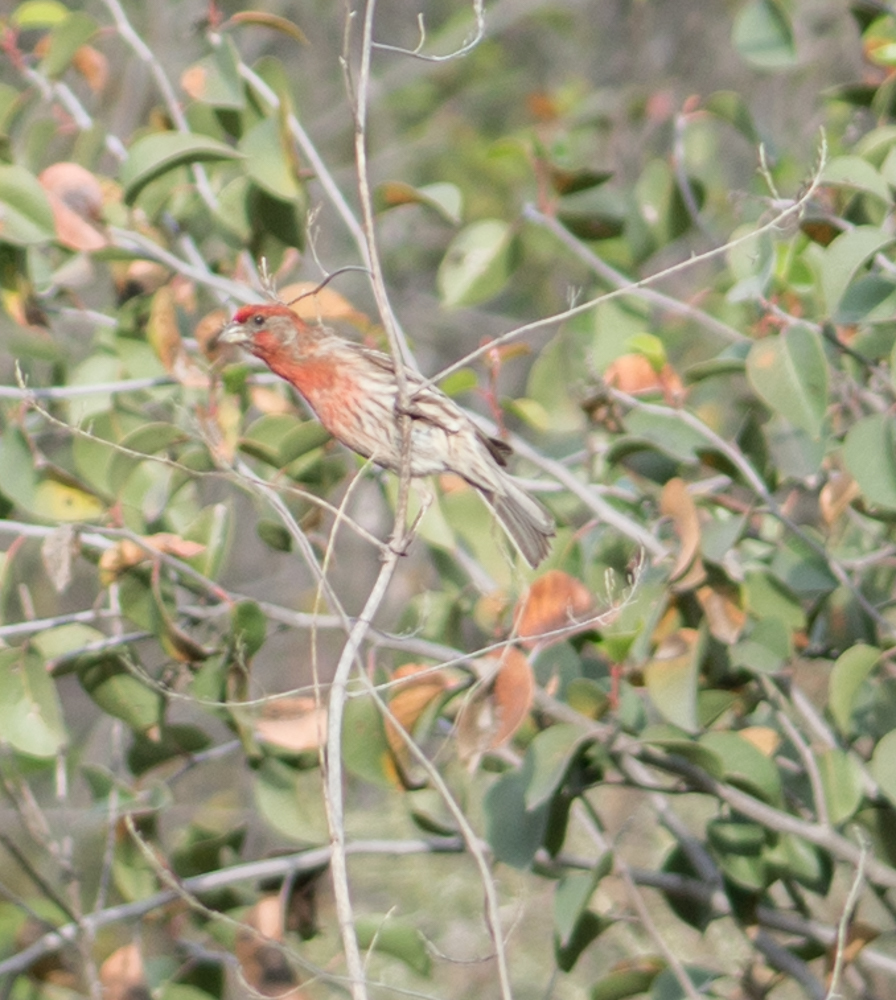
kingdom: Animalia
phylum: Chordata
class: Aves
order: Passeriformes
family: Fringillidae
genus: Haemorhous
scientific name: Haemorhous mexicanus
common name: House finch
